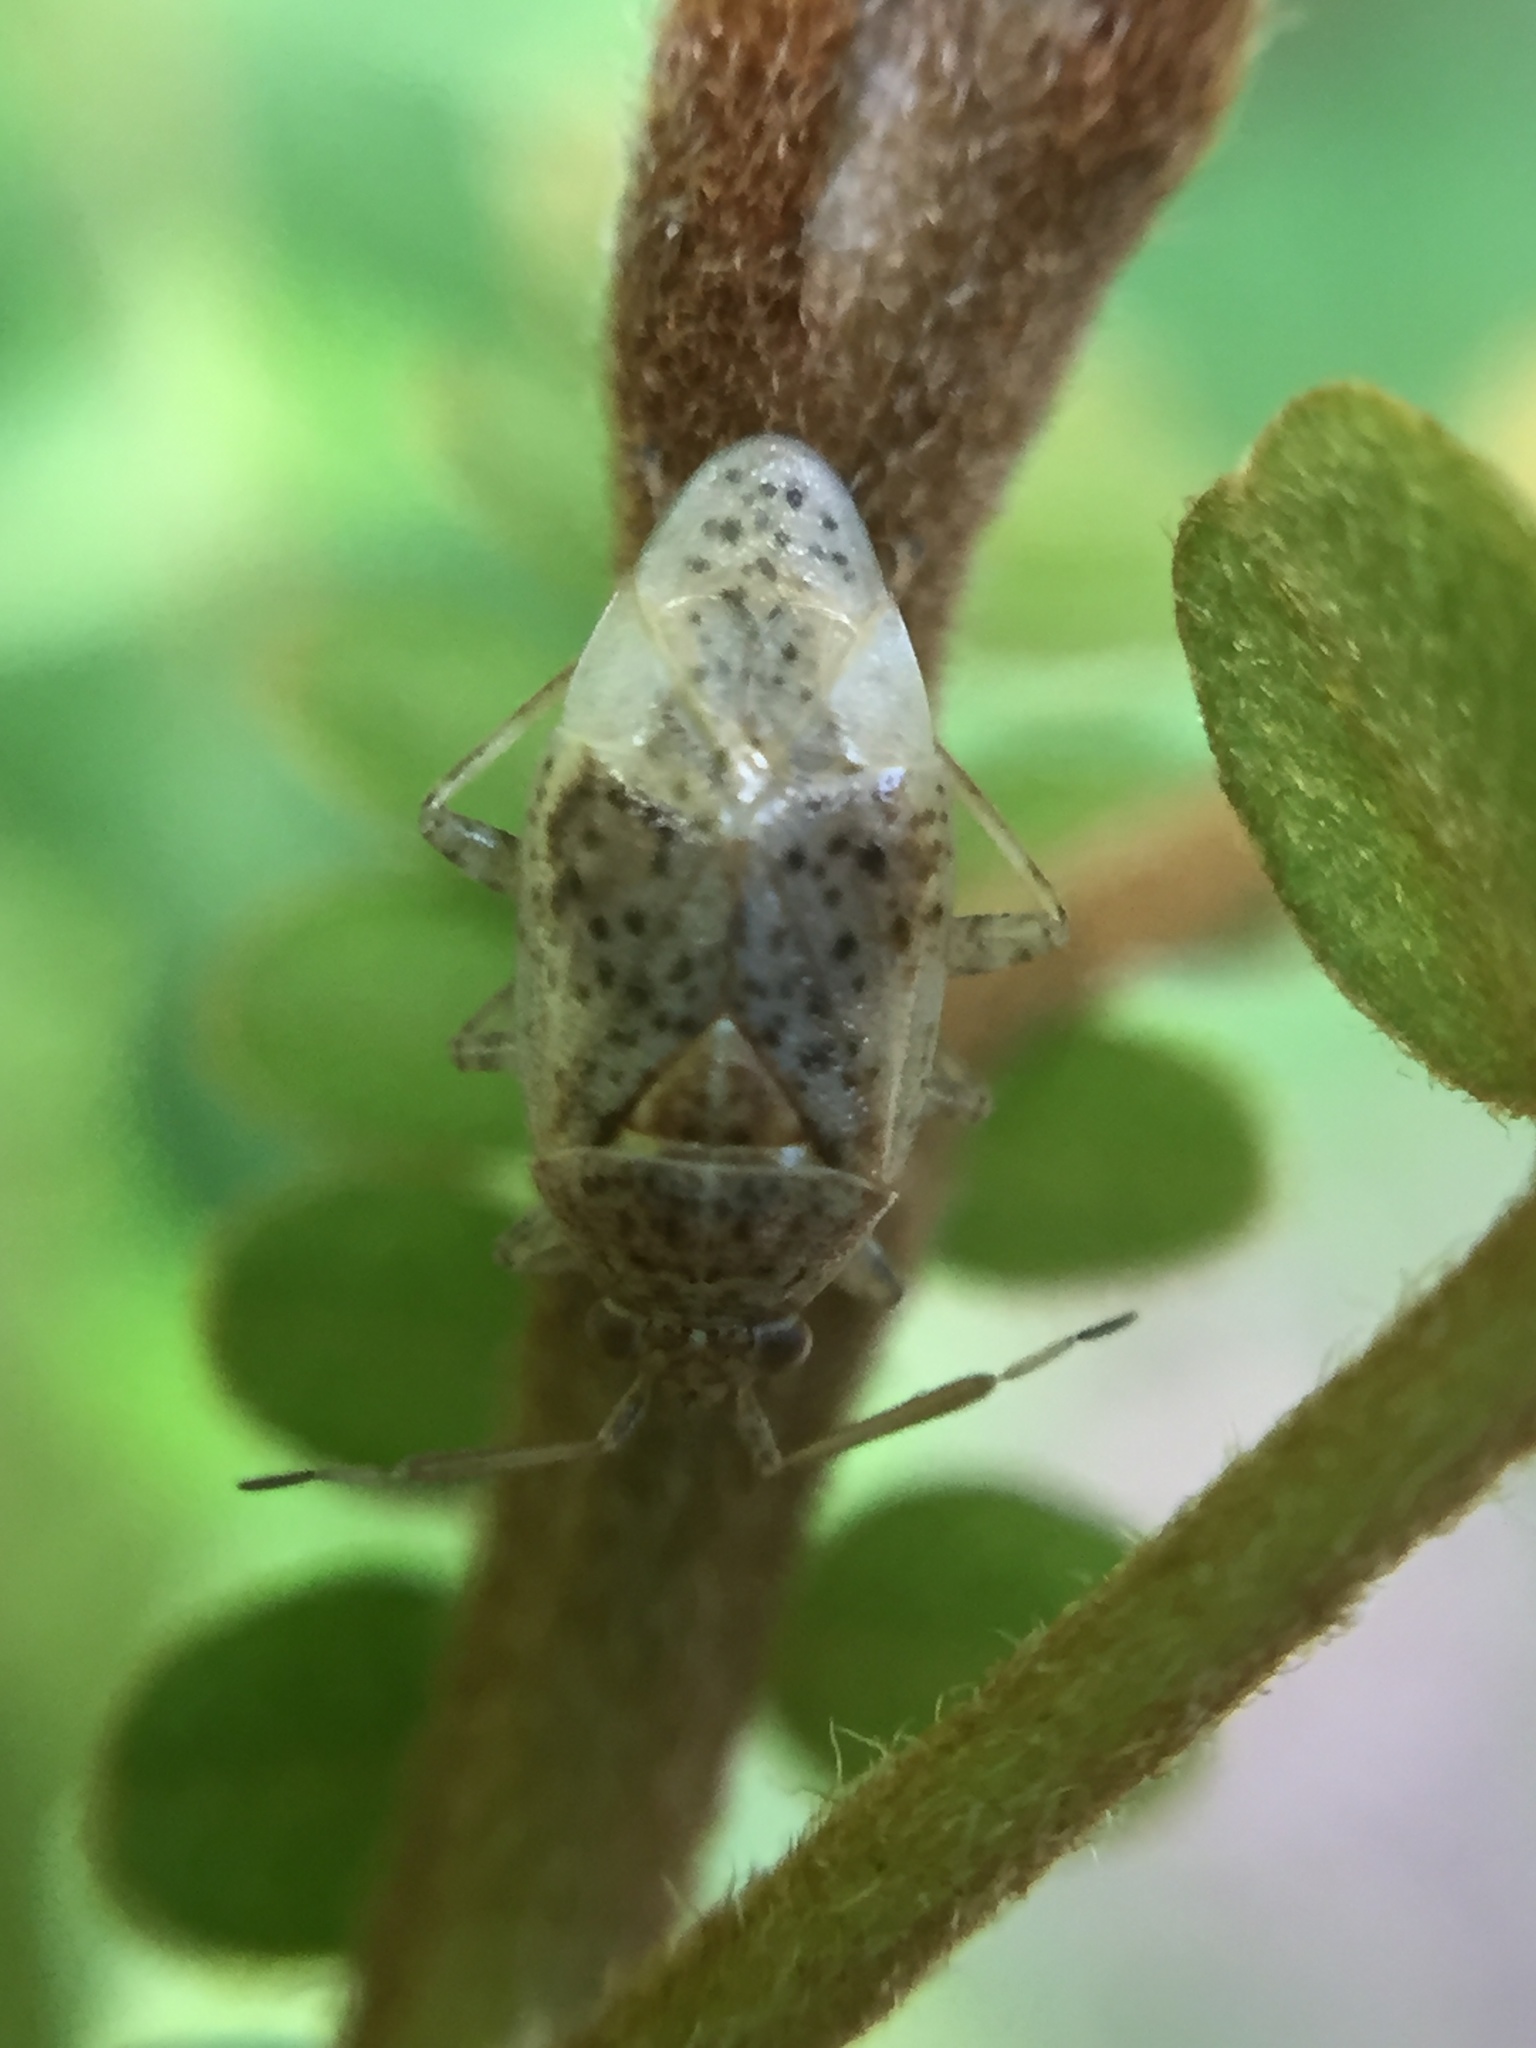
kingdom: Animalia
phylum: Arthropoda
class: Insecta
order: Hemiptera
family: Miridae
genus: Romna
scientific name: Romna pallida
